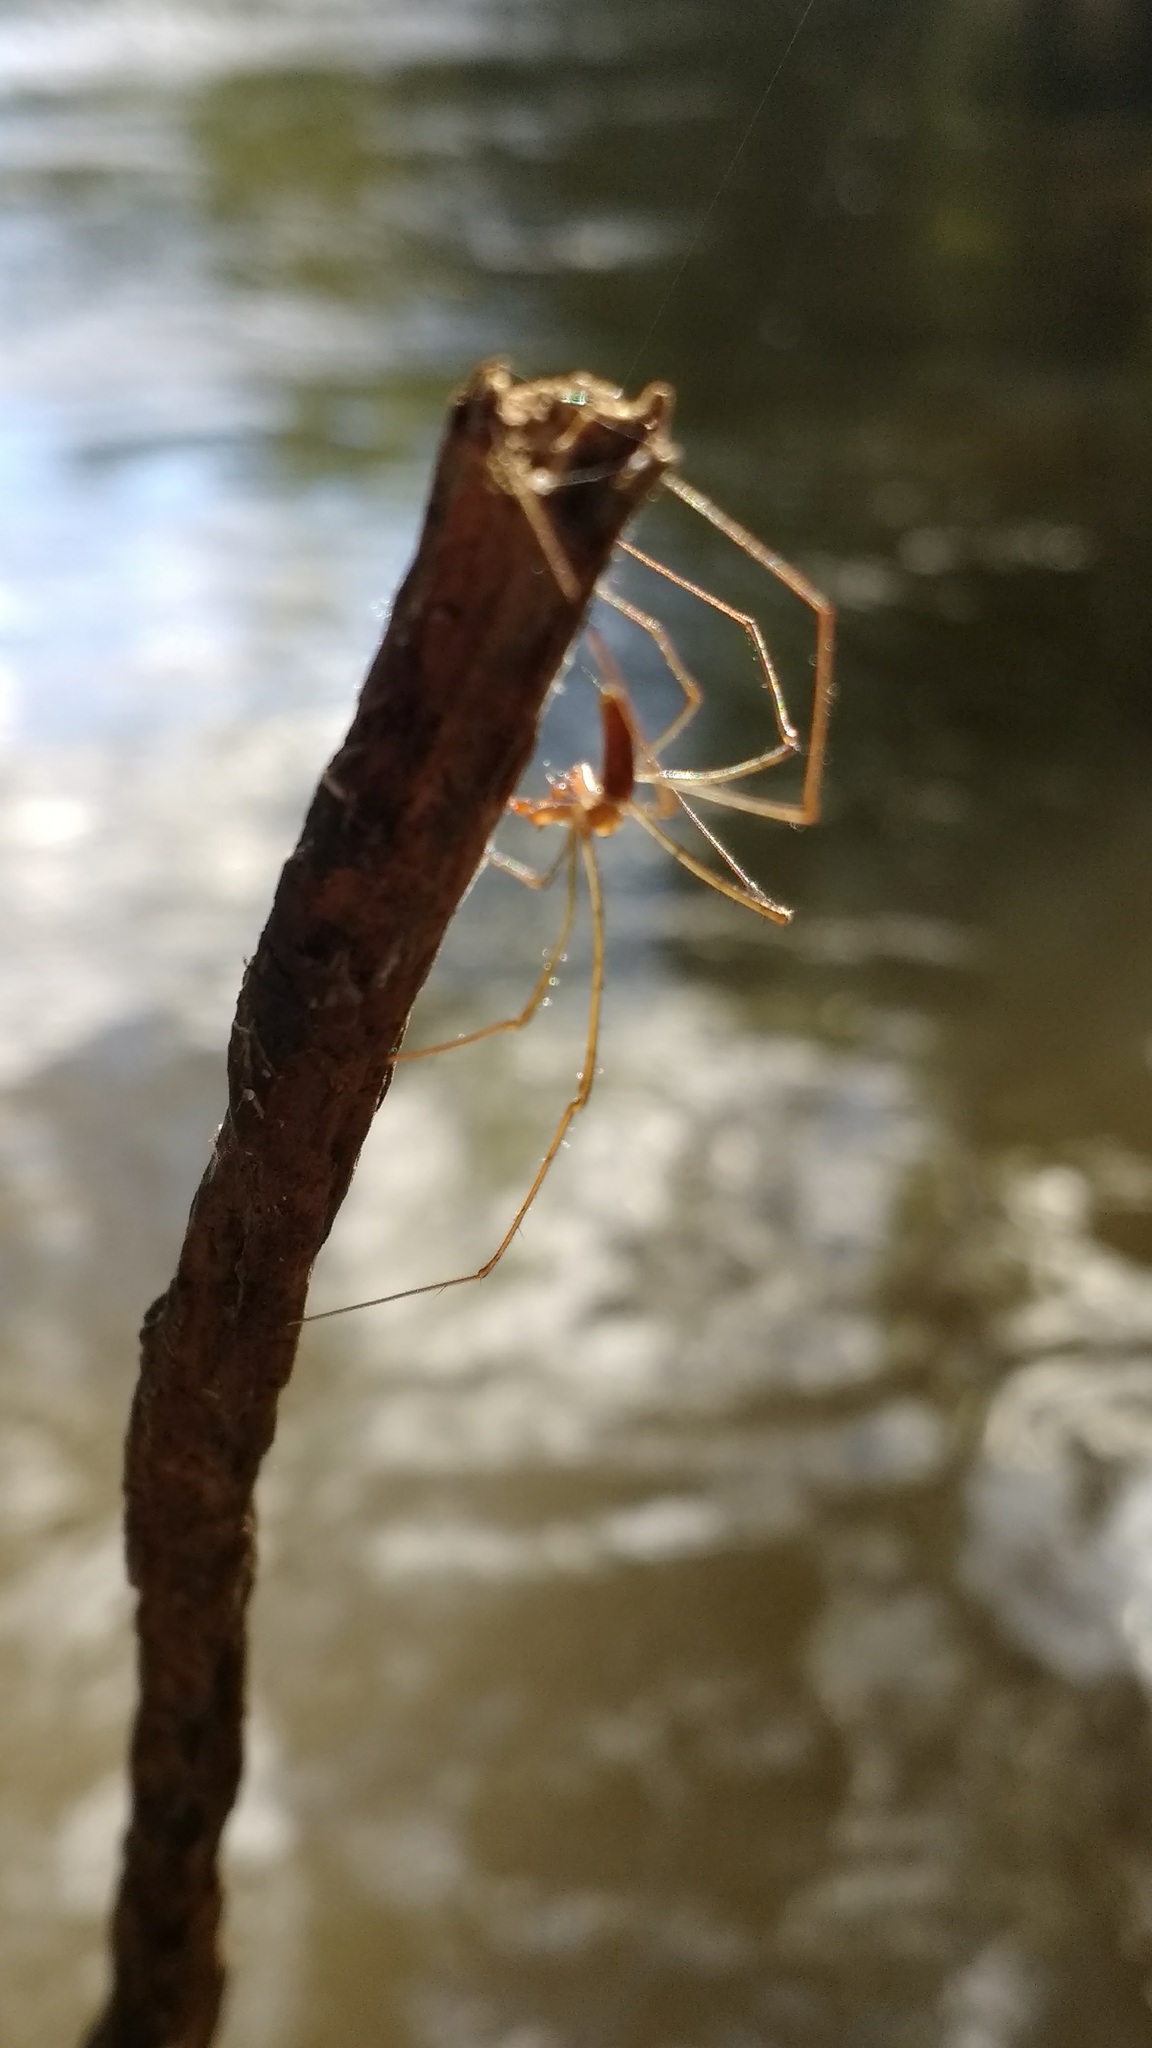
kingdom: Animalia
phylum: Arthropoda
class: Arachnida
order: Araneae
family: Tetragnathidae
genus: Tetragnatha
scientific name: Tetragnatha
